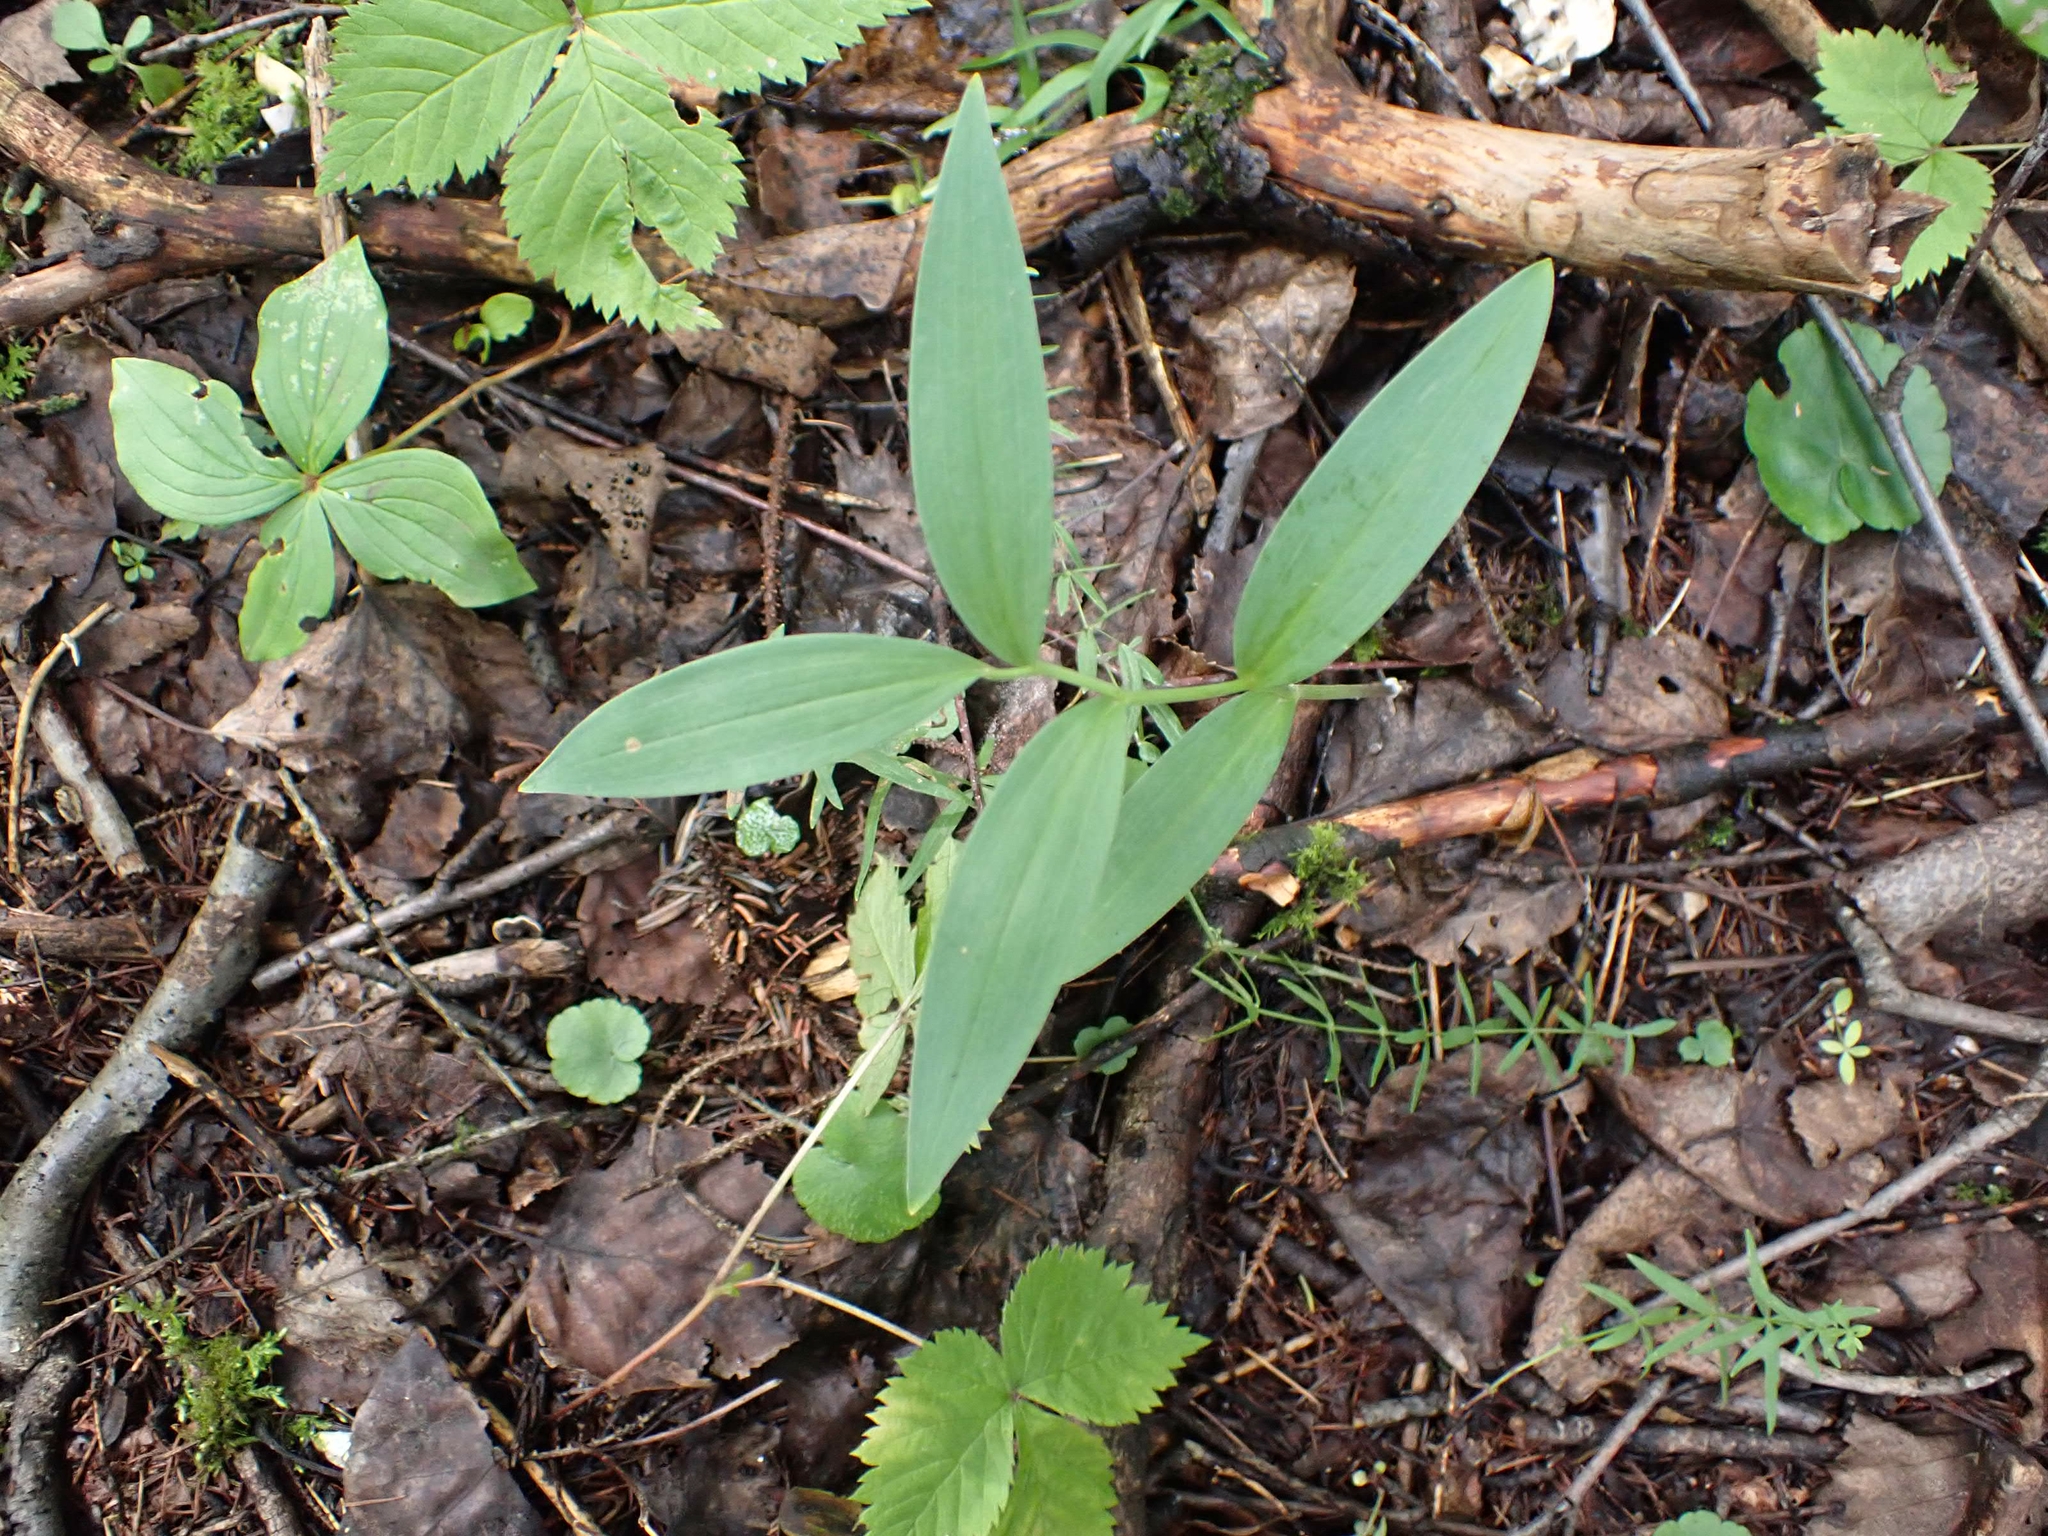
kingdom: Plantae
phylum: Tracheophyta
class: Liliopsida
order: Asparagales
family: Asparagaceae
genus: Maianthemum
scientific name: Maianthemum stellatum
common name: Little false solomon's seal
